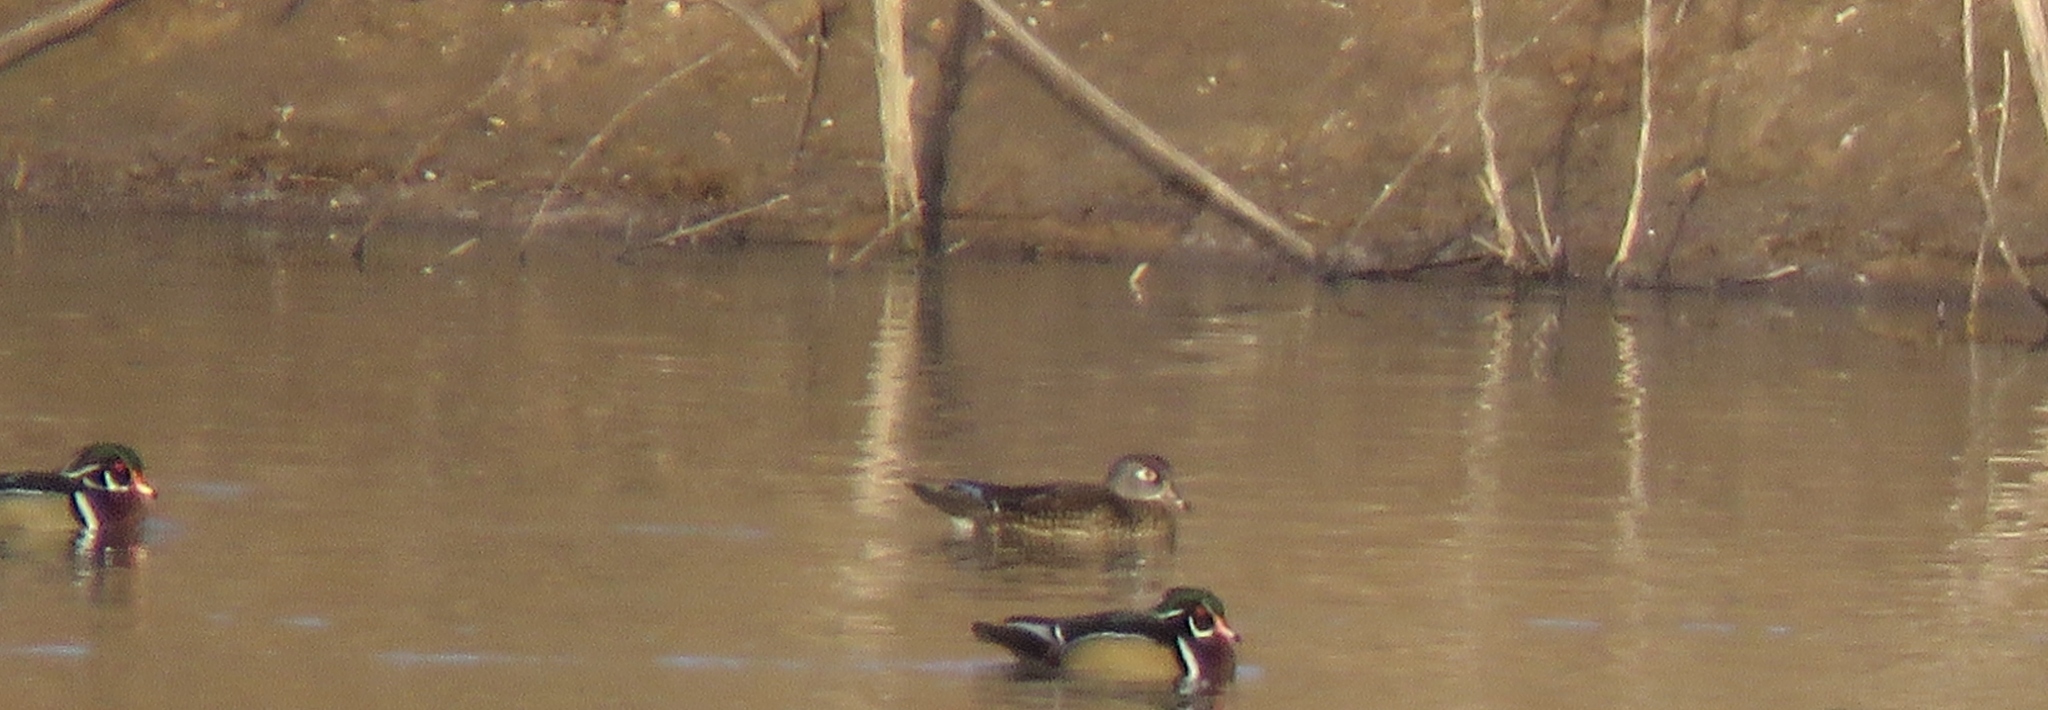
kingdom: Animalia
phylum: Chordata
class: Aves
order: Anseriformes
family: Anatidae
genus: Aix
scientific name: Aix sponsa
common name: Wood duck
